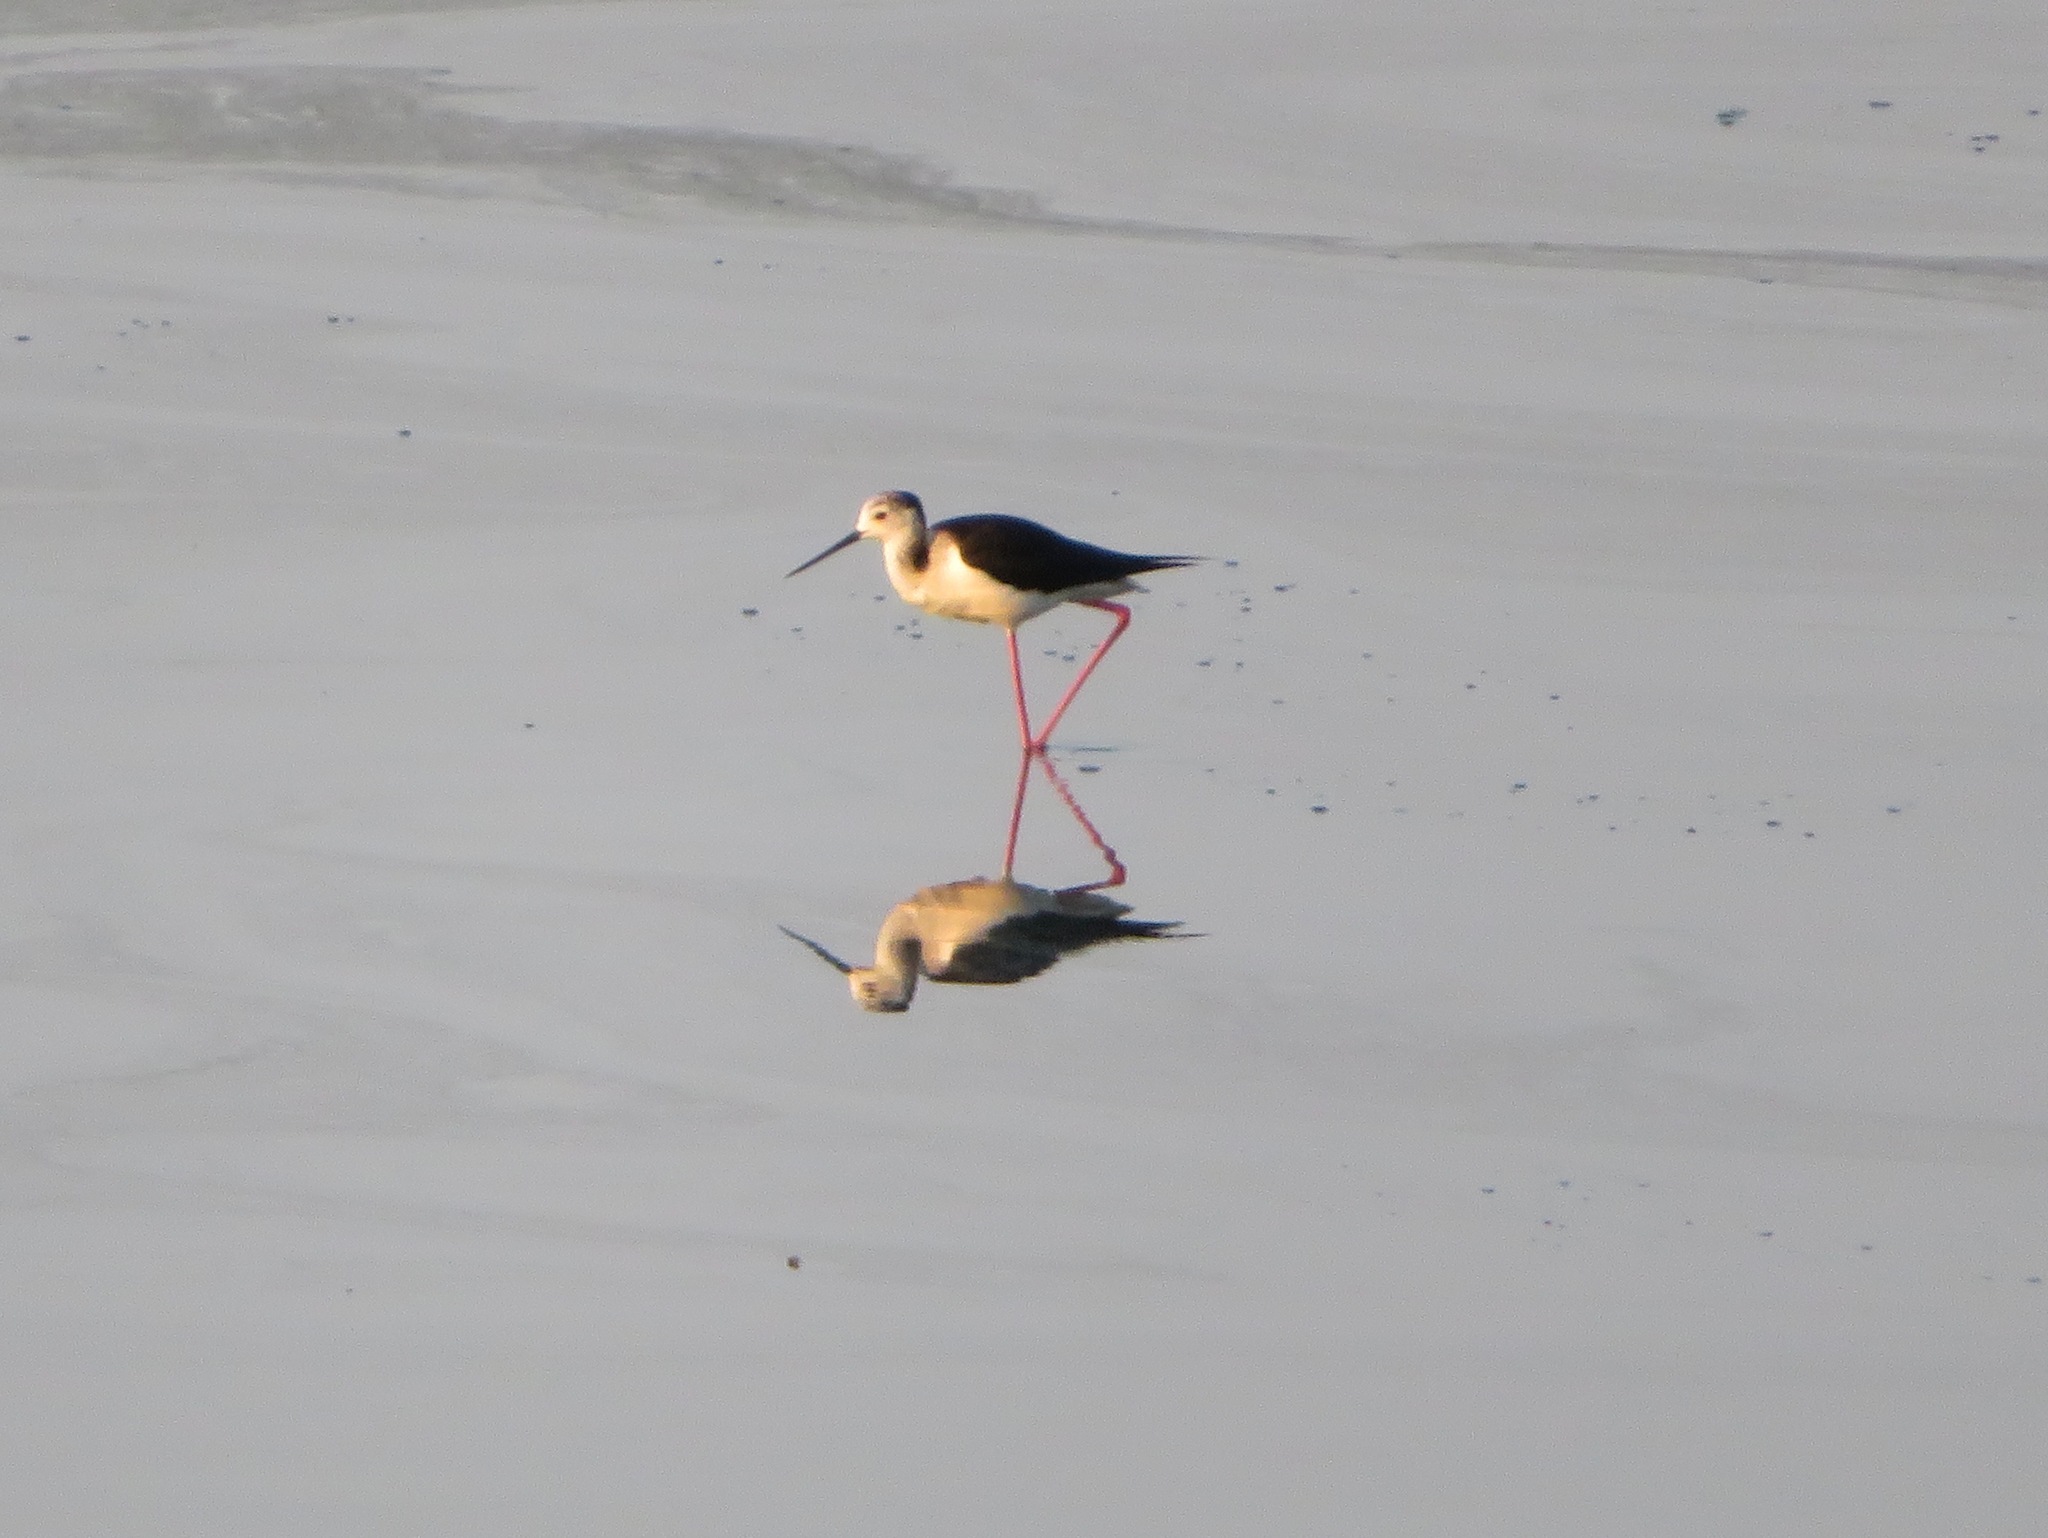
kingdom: Animalia
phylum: Chordata
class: Aves
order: Charadriiformes
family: Recurvirostridae
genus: Himantopus
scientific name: Himantopus himantopus
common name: Black-winged stilt
